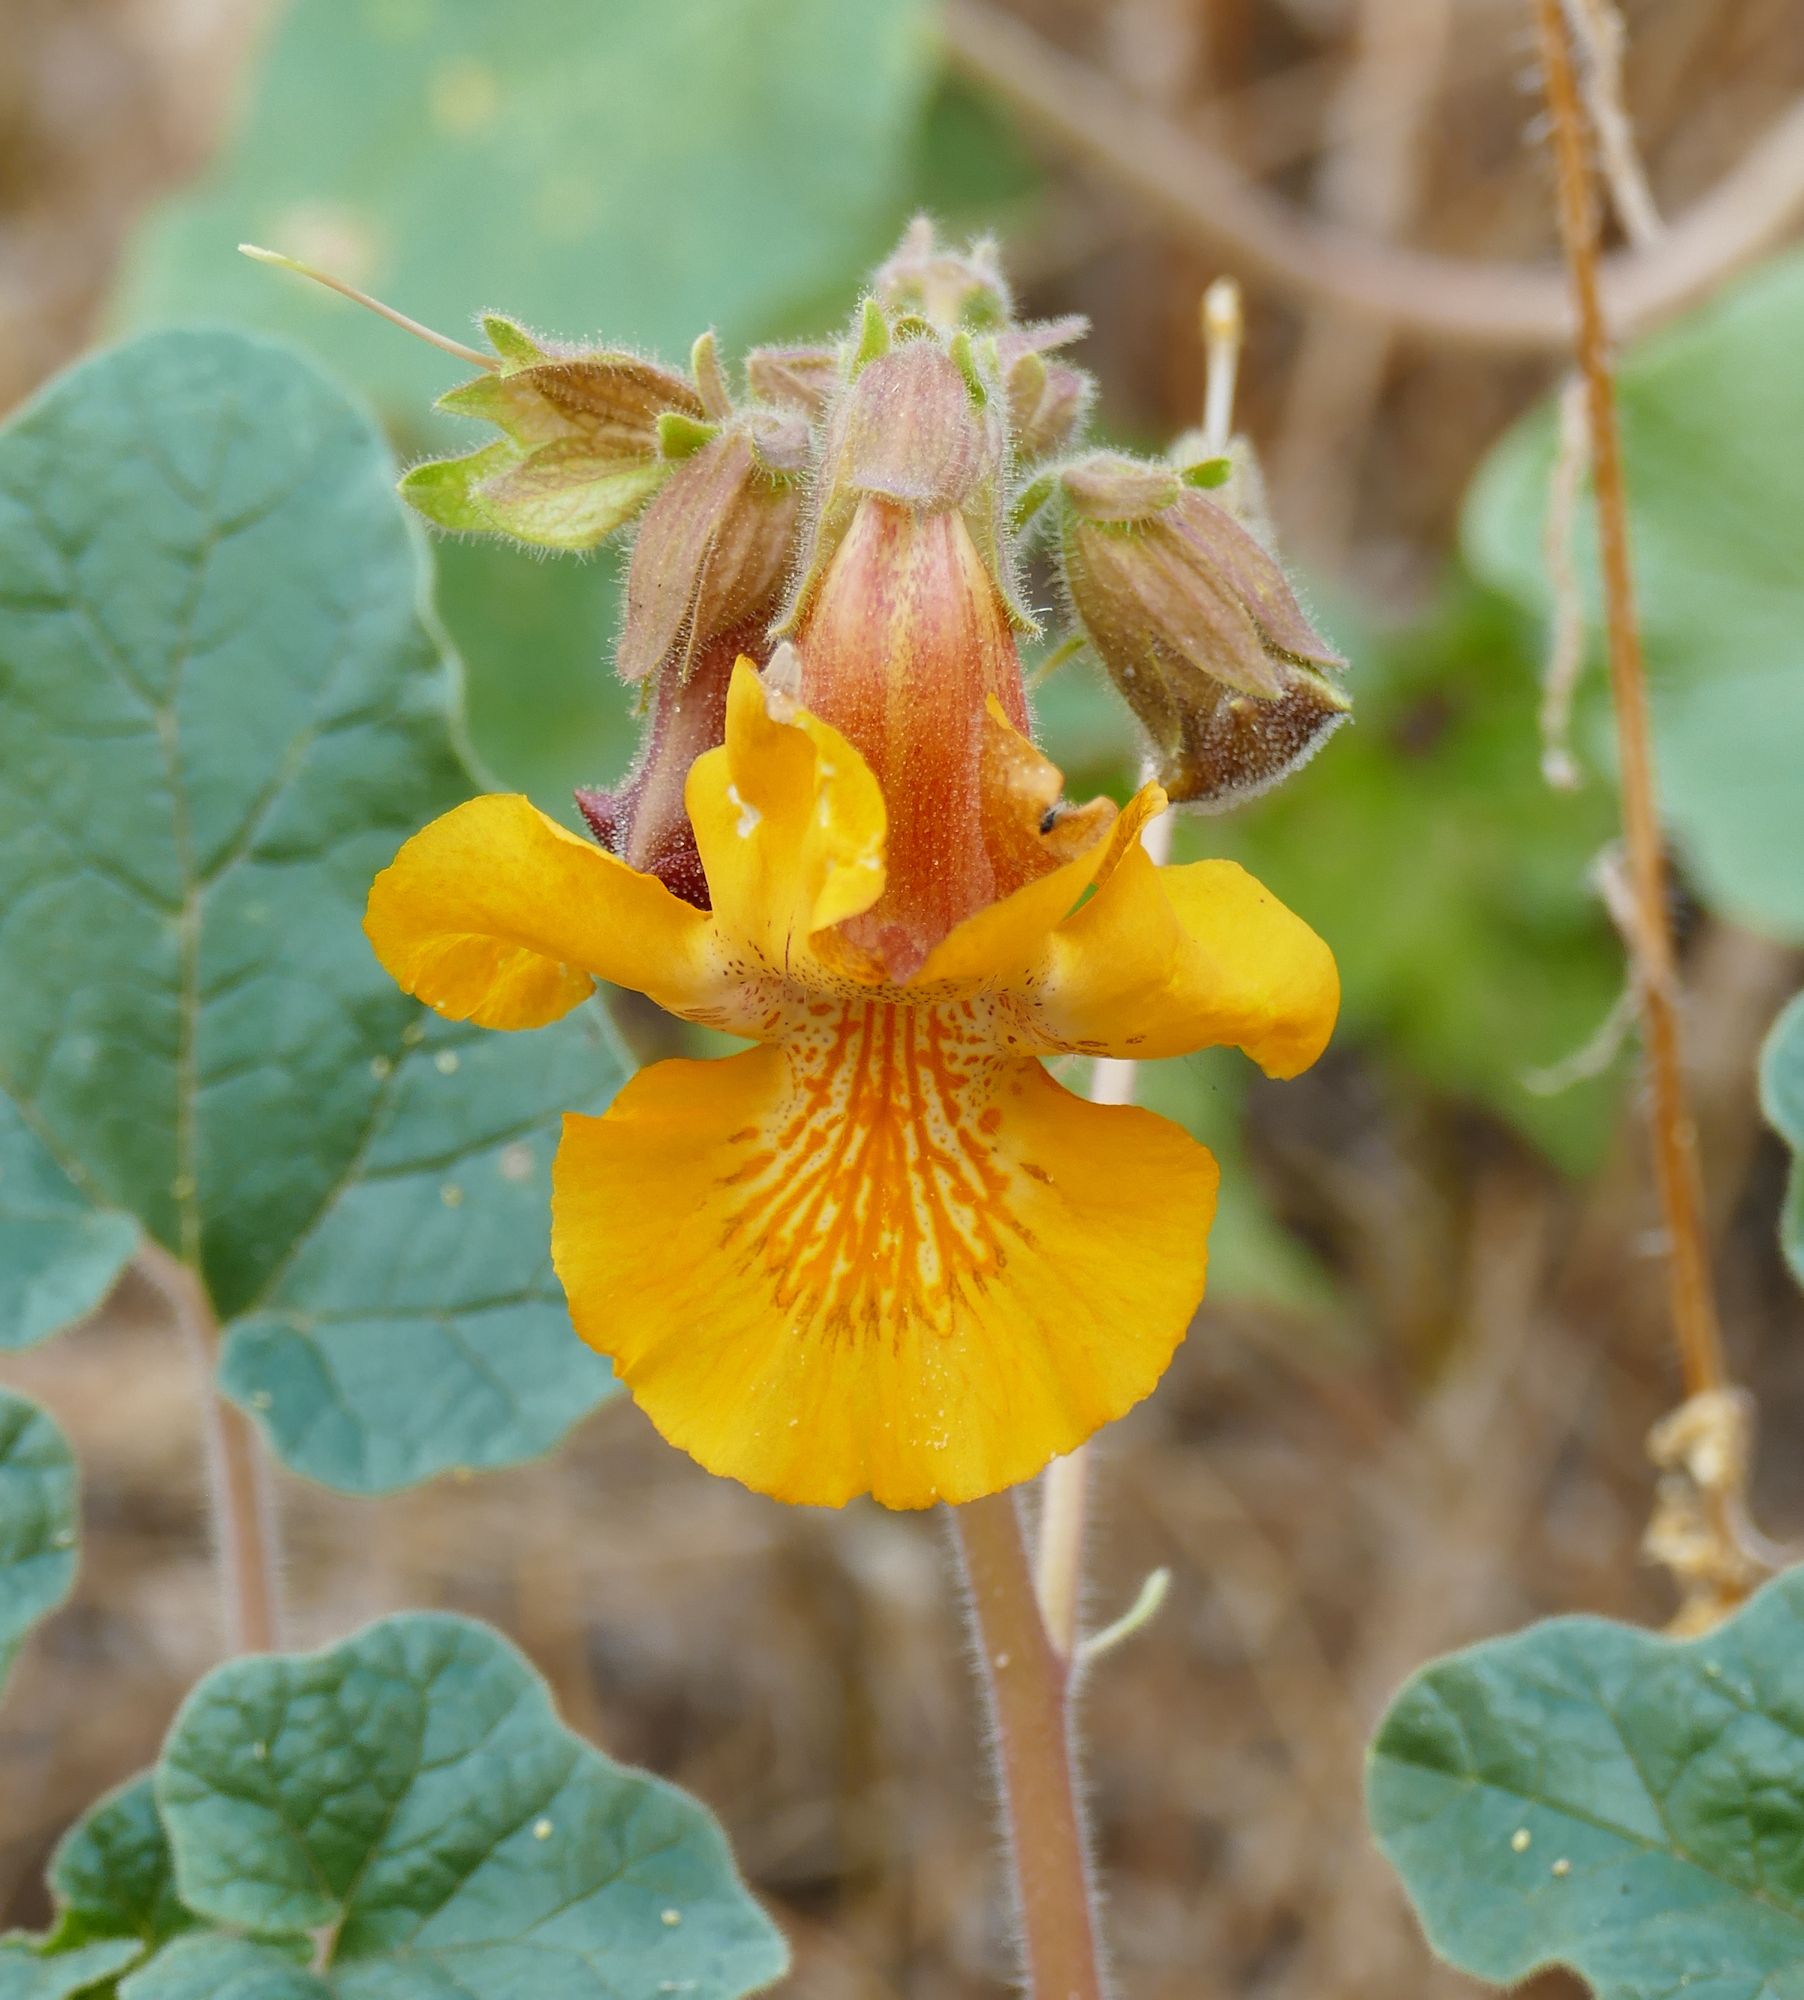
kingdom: Plantae
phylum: Tracheophyta
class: Magnoliopsida
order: Lamiales
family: Martyniaceae
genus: Proboscidea
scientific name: Proboscidea althaeifolia
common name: Desert unicorn-plant
